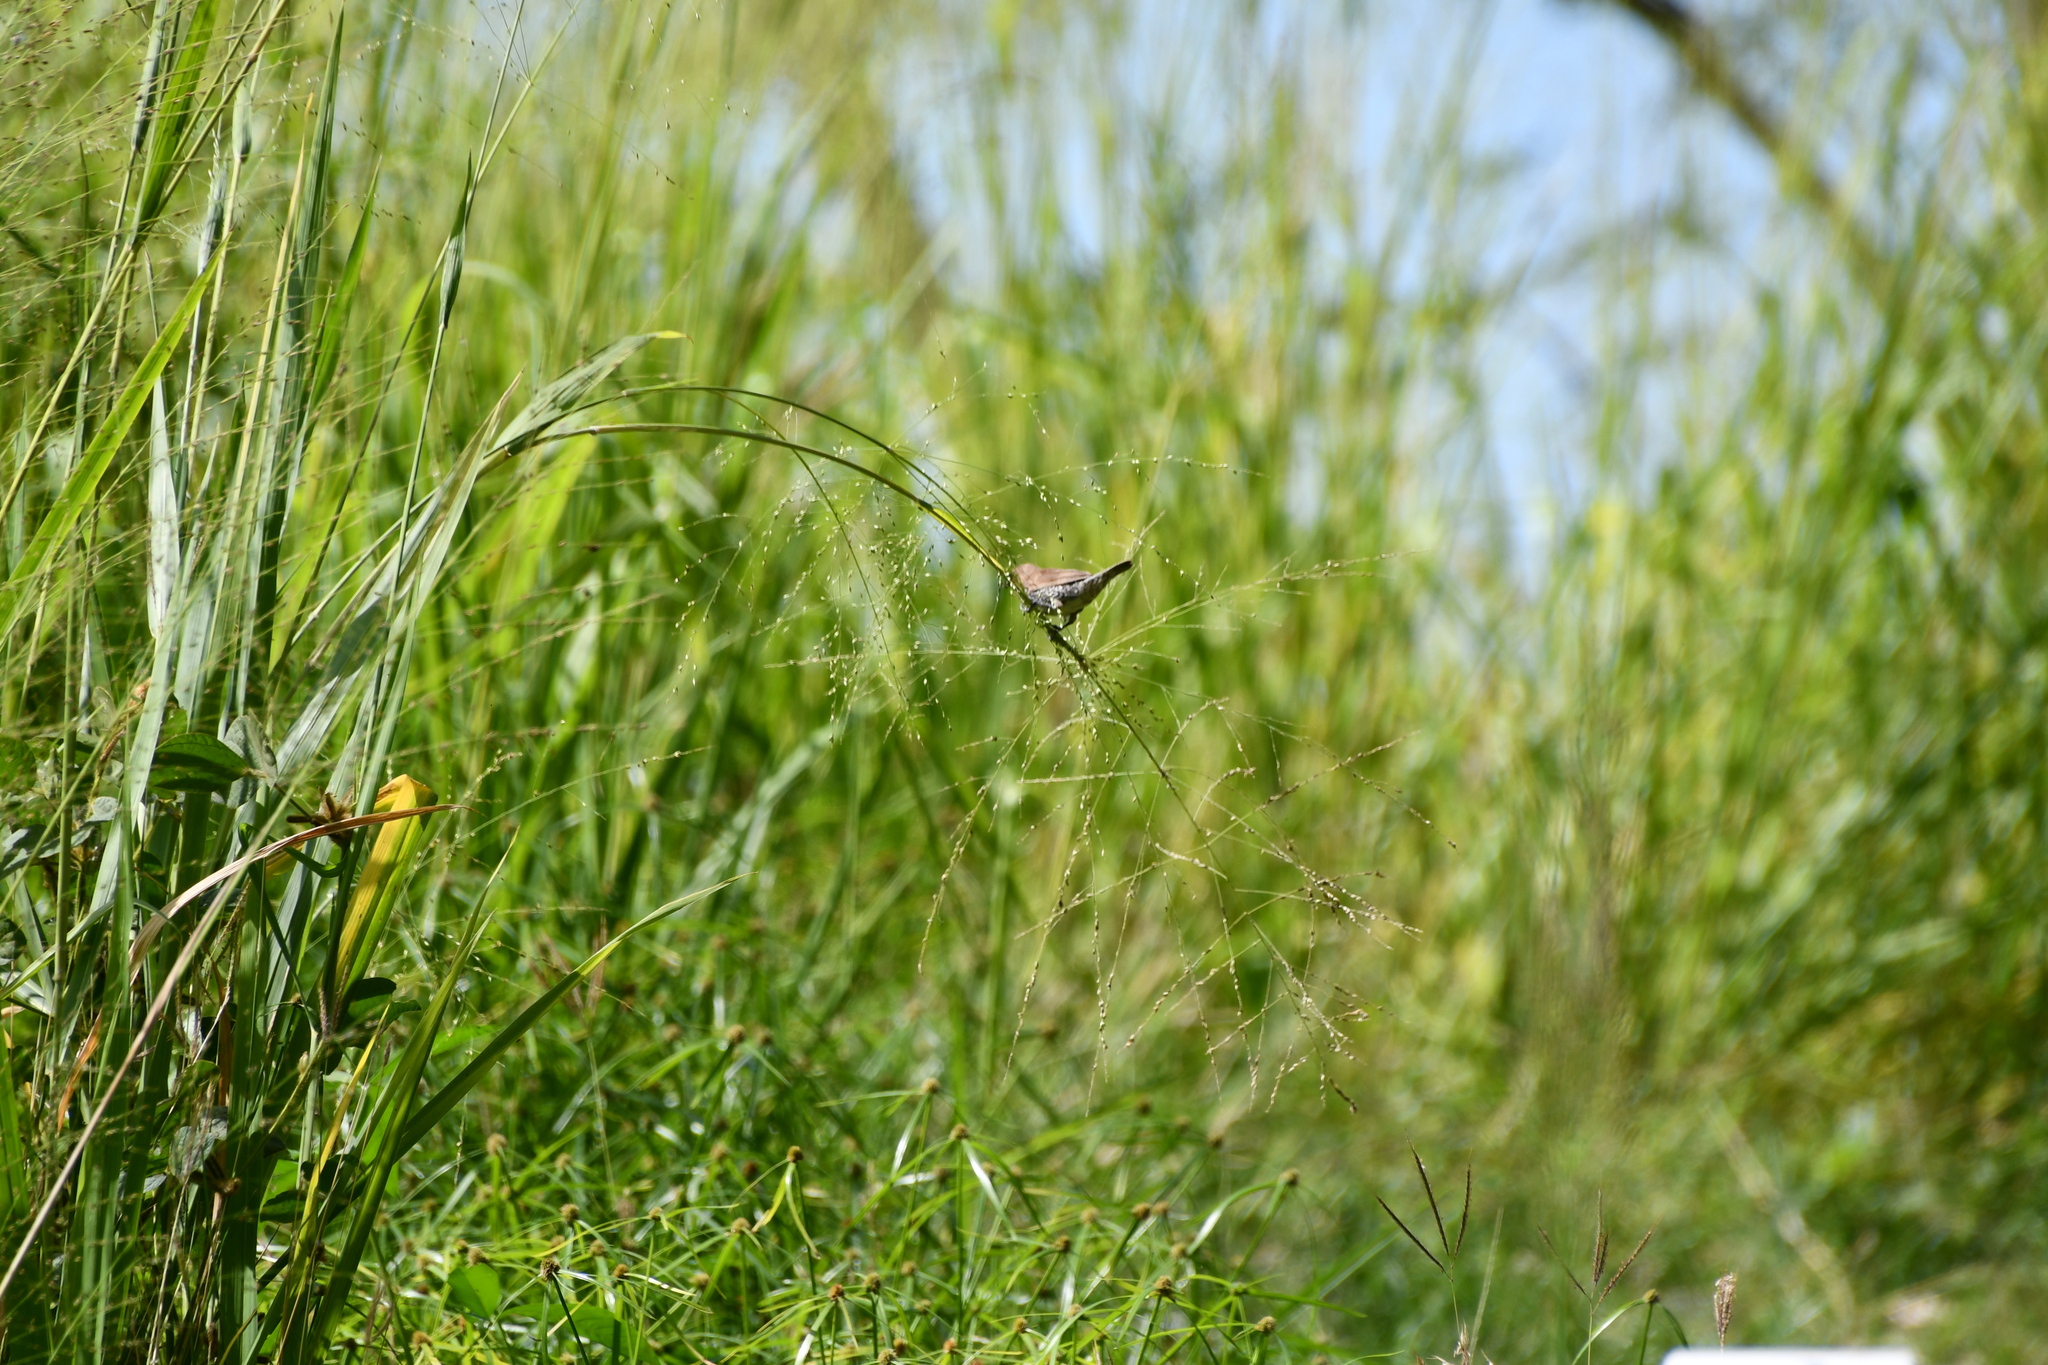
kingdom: Animalia
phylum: Chordata
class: Aves
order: Passeriformes
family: Estrildidae
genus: Lonchura
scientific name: Lonchura punctulata
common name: Scaly-breasted munia
